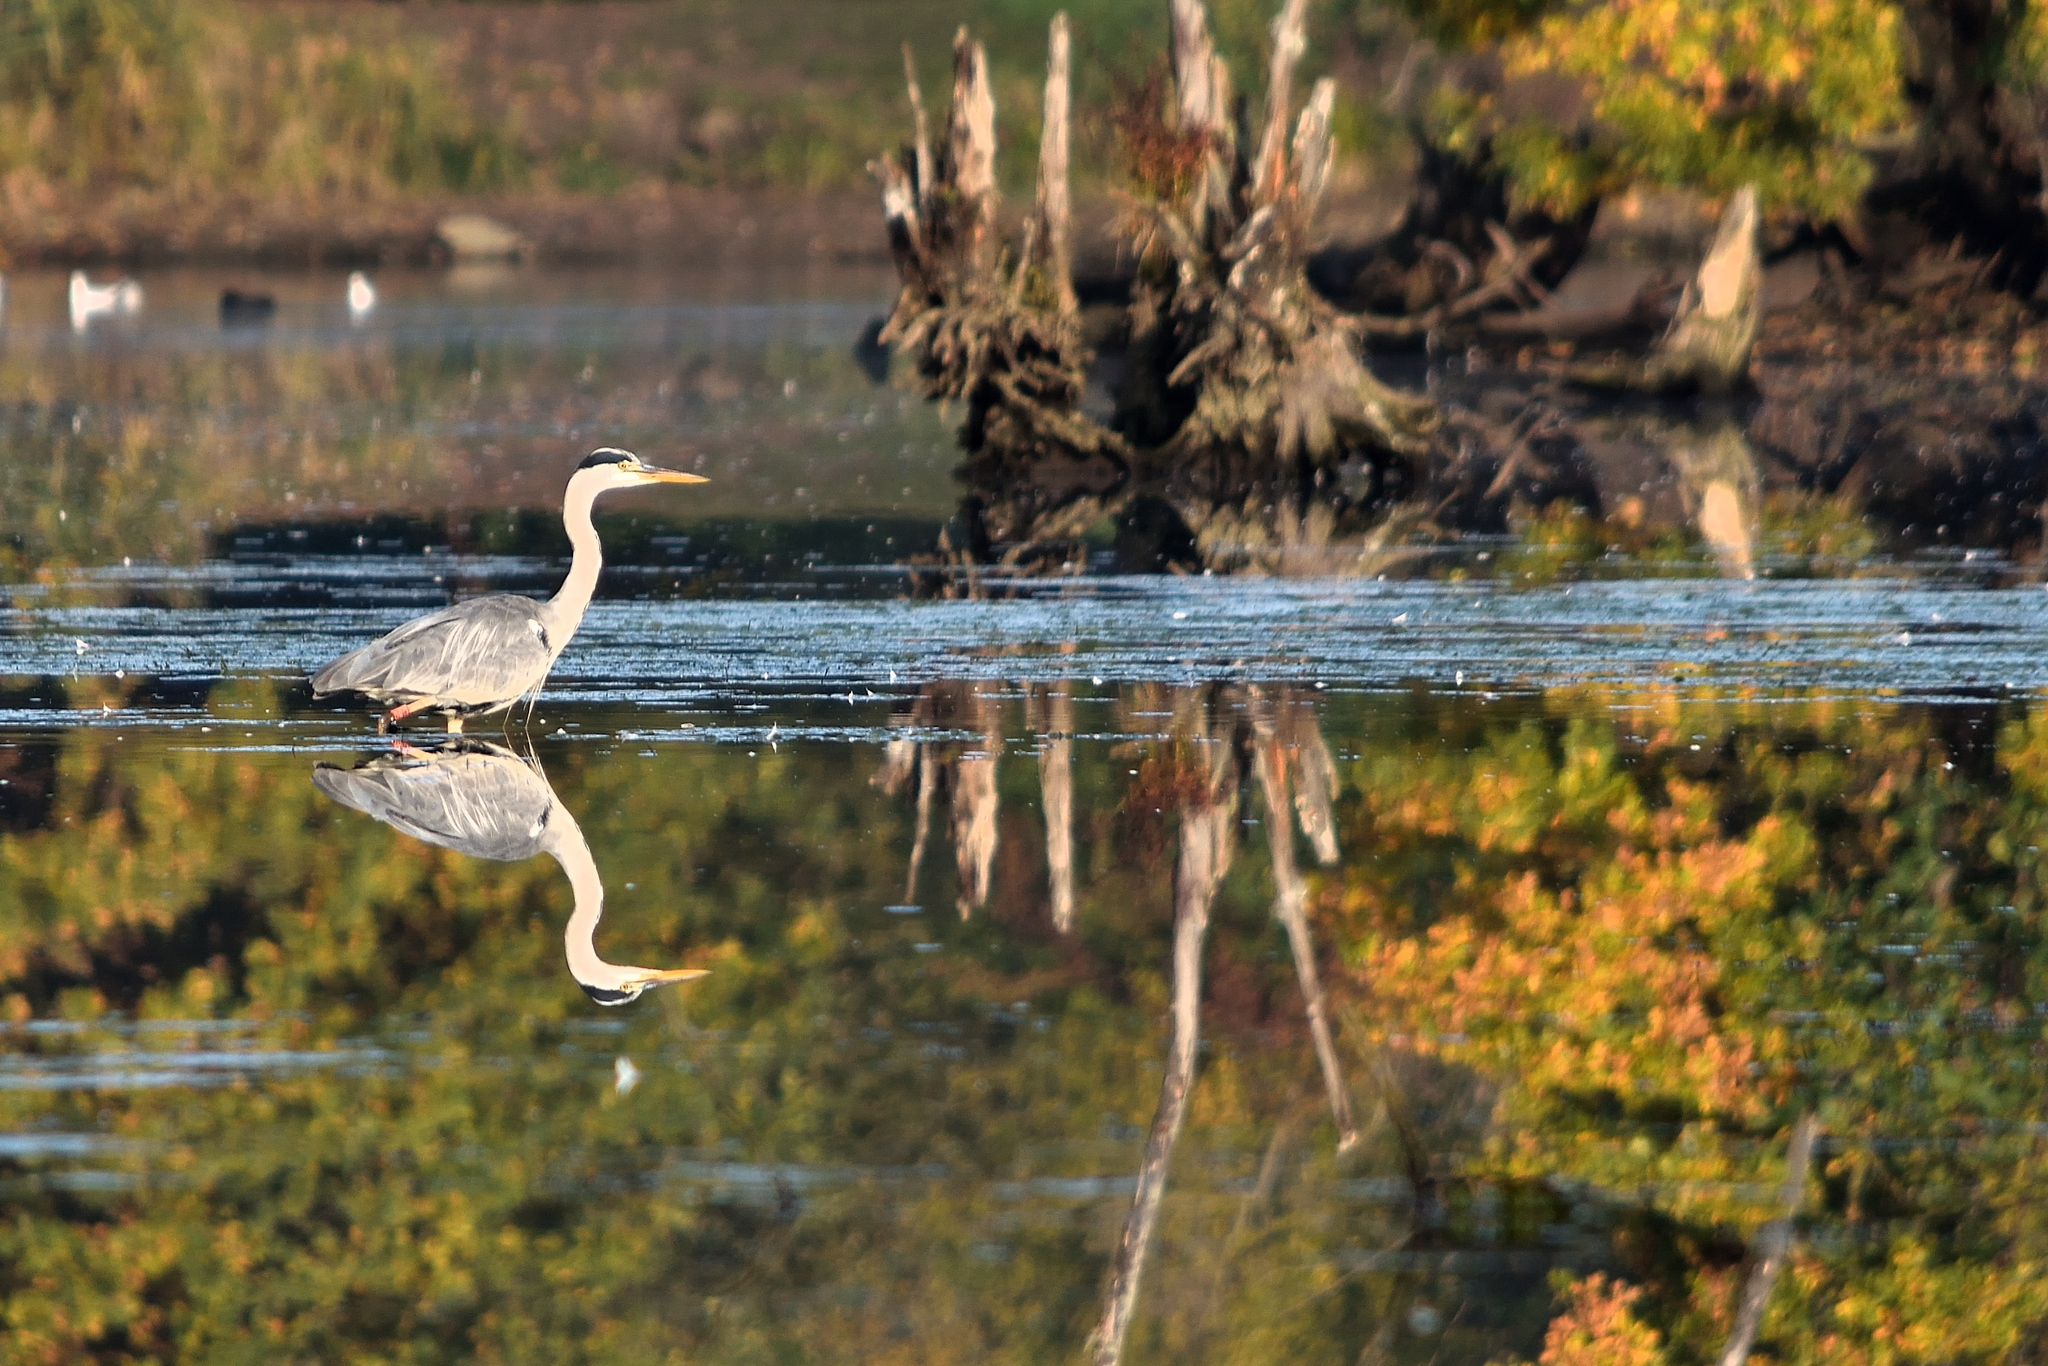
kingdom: Animalia
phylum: Chordata
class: Aves
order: Pelecaniformes
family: Ardeidae
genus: Ardea
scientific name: Ardea cinerea
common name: Grey heron
